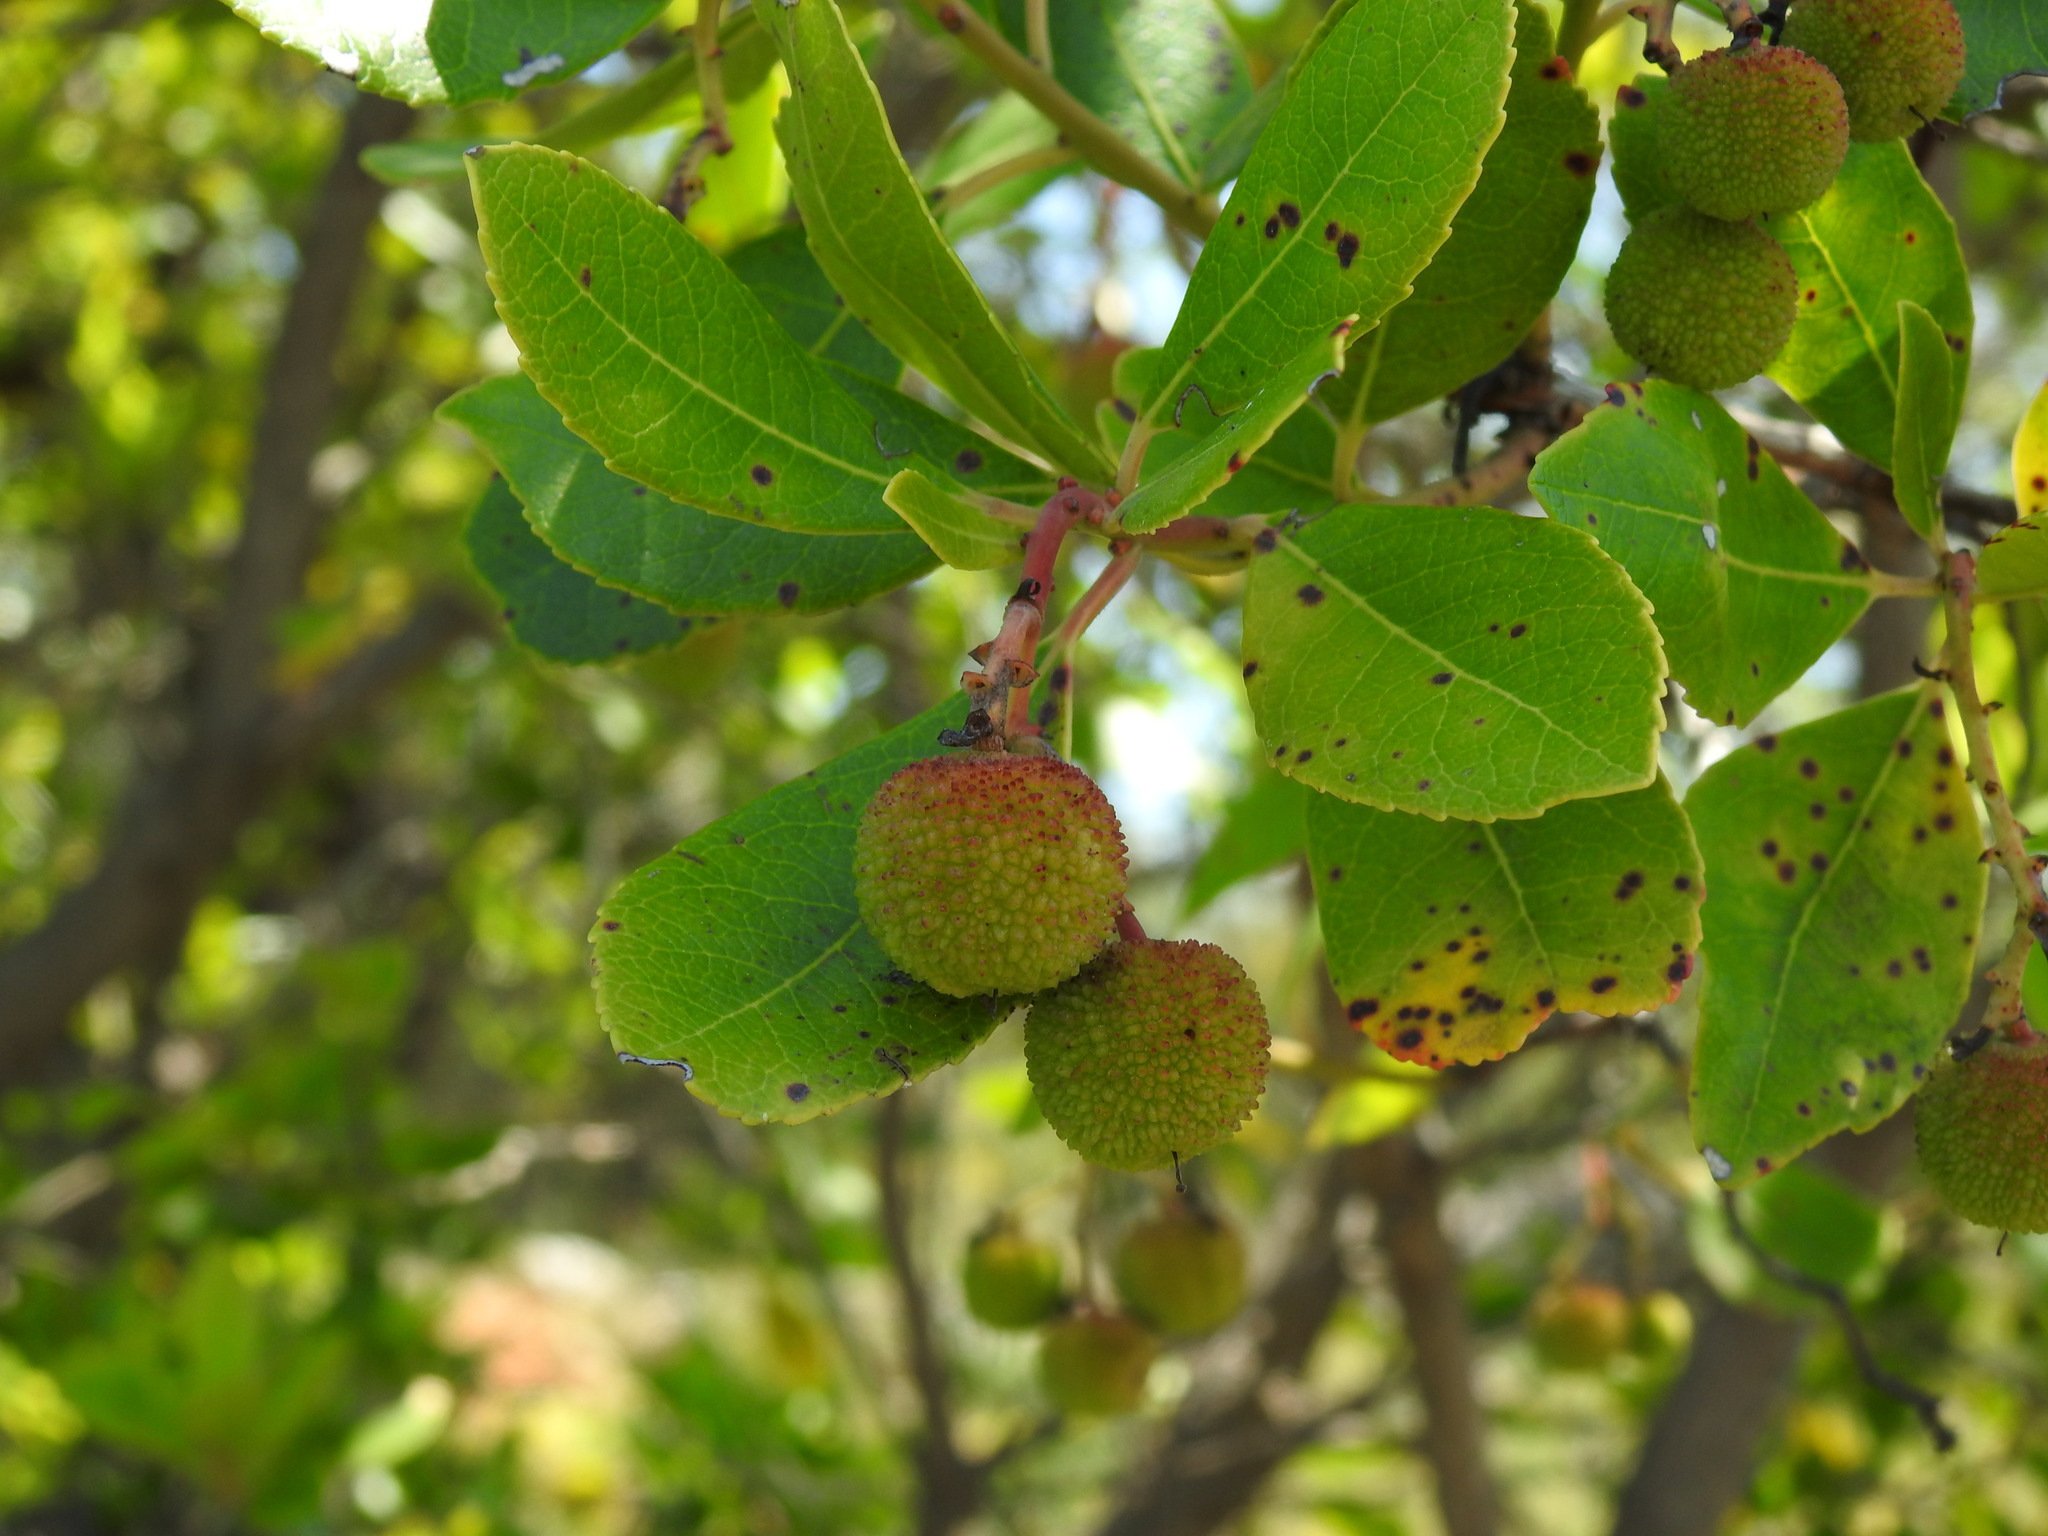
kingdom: Plantae
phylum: Tracheophyta
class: Magnoliopsida
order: Ericales
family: Ericaceae
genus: Arbutus
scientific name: Arbutus unedo
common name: Strawberry-tree
